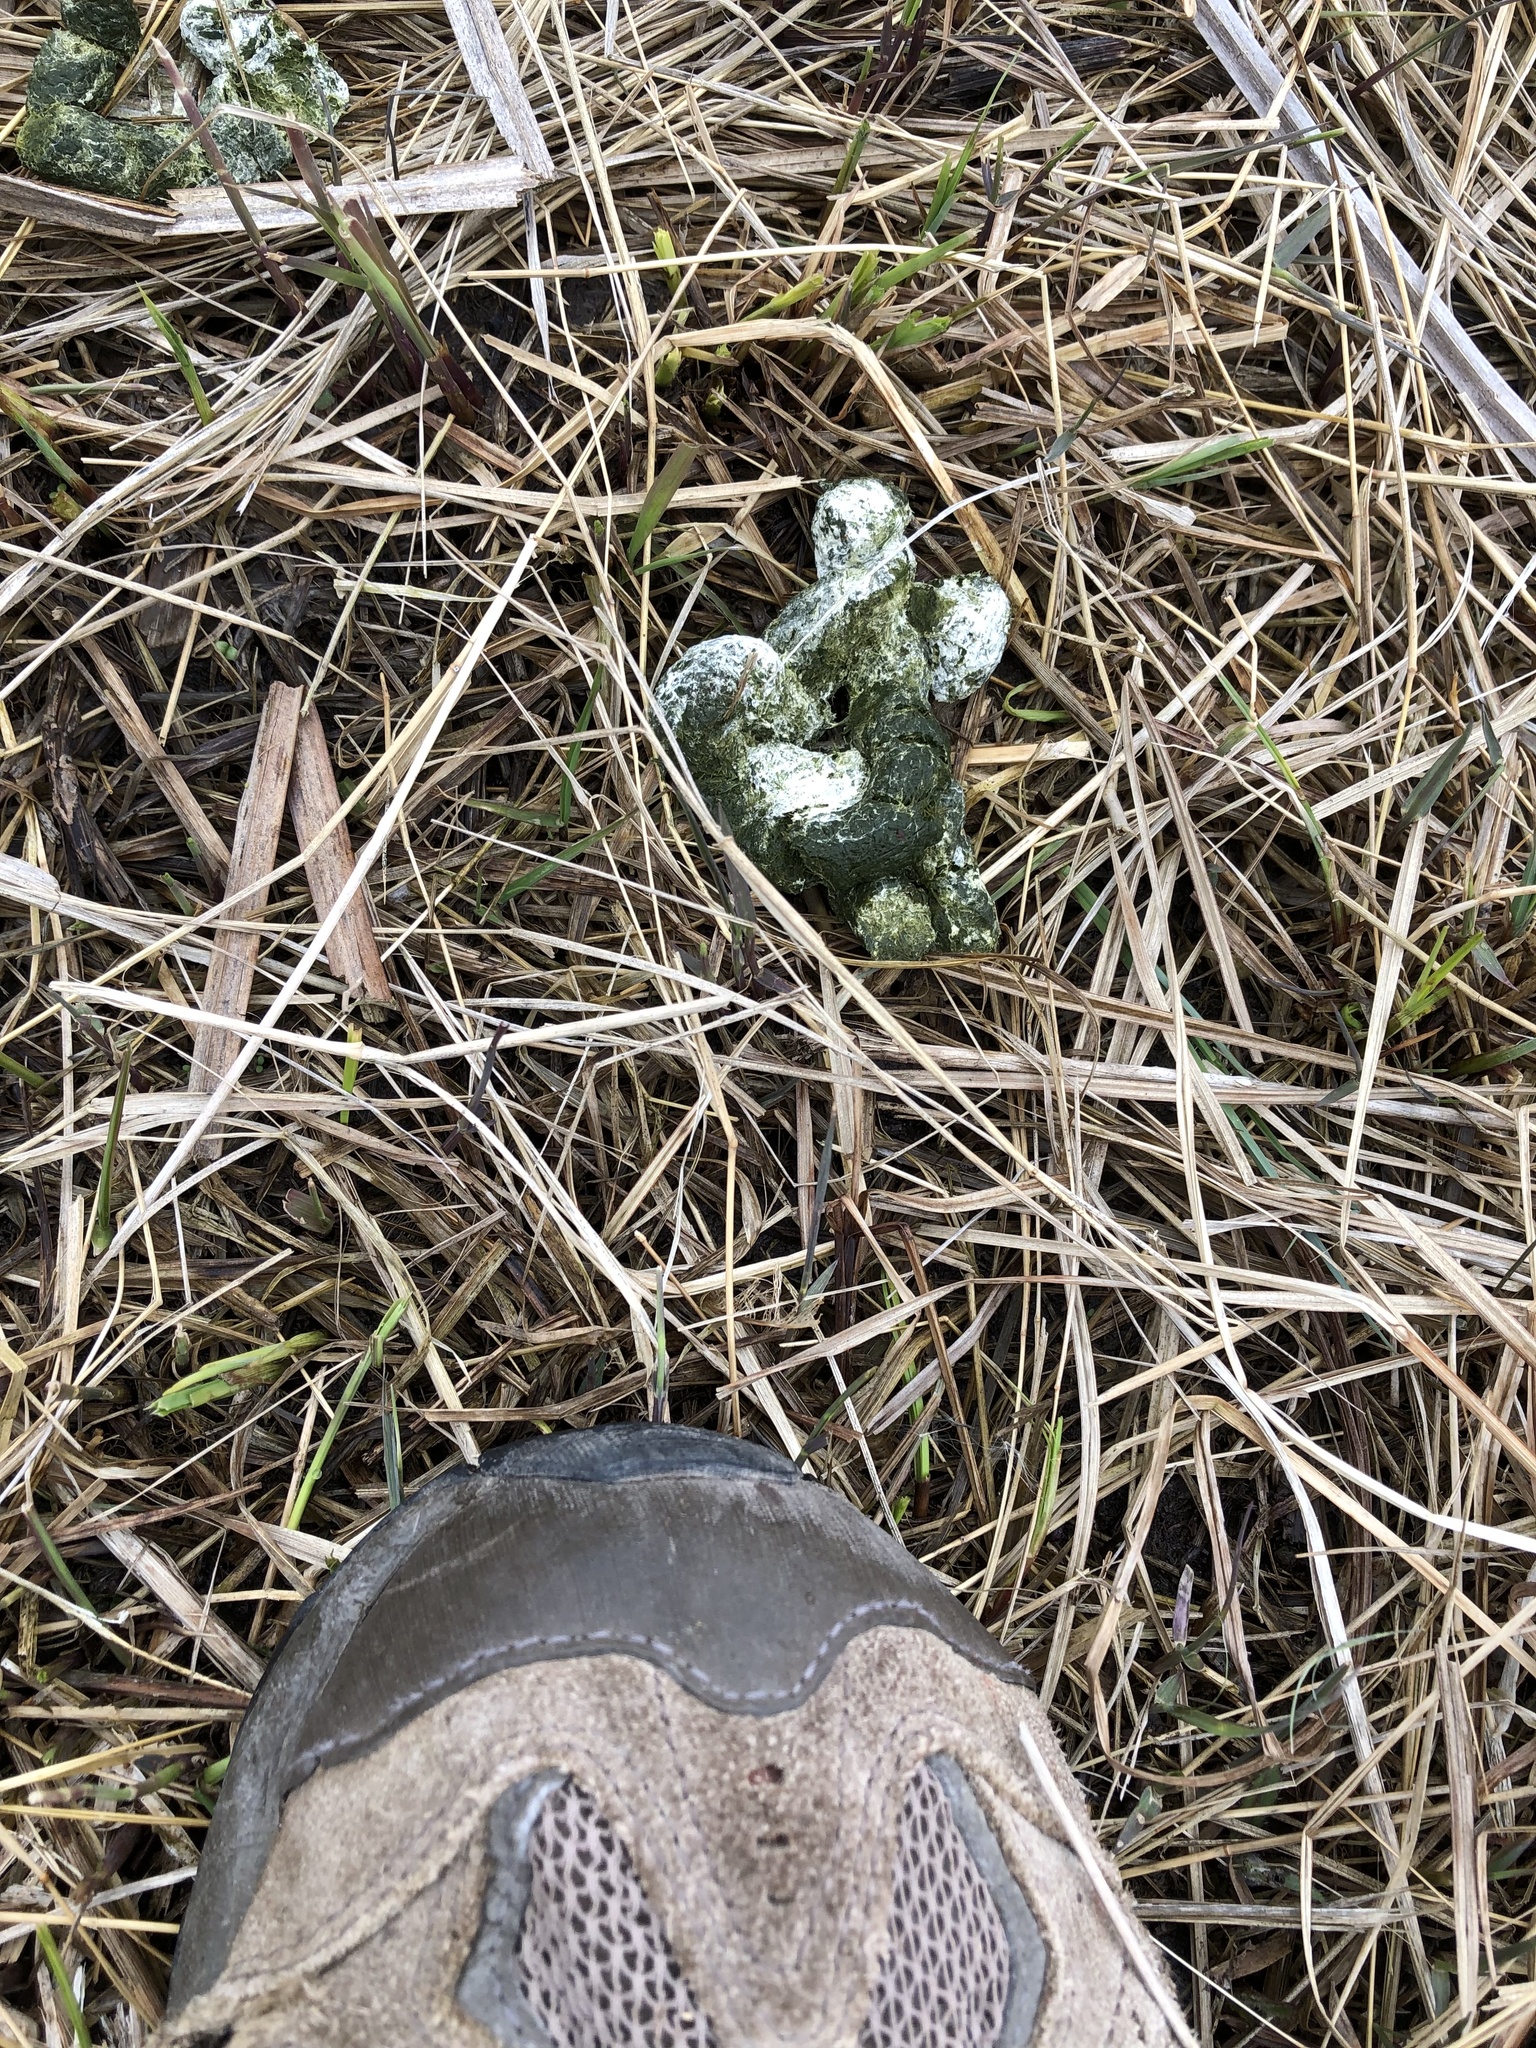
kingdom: Animalia
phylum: Chordata
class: Aves
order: Anseriformes
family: Anatidae
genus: Branta
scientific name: Branta canadensis
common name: Canada goose
